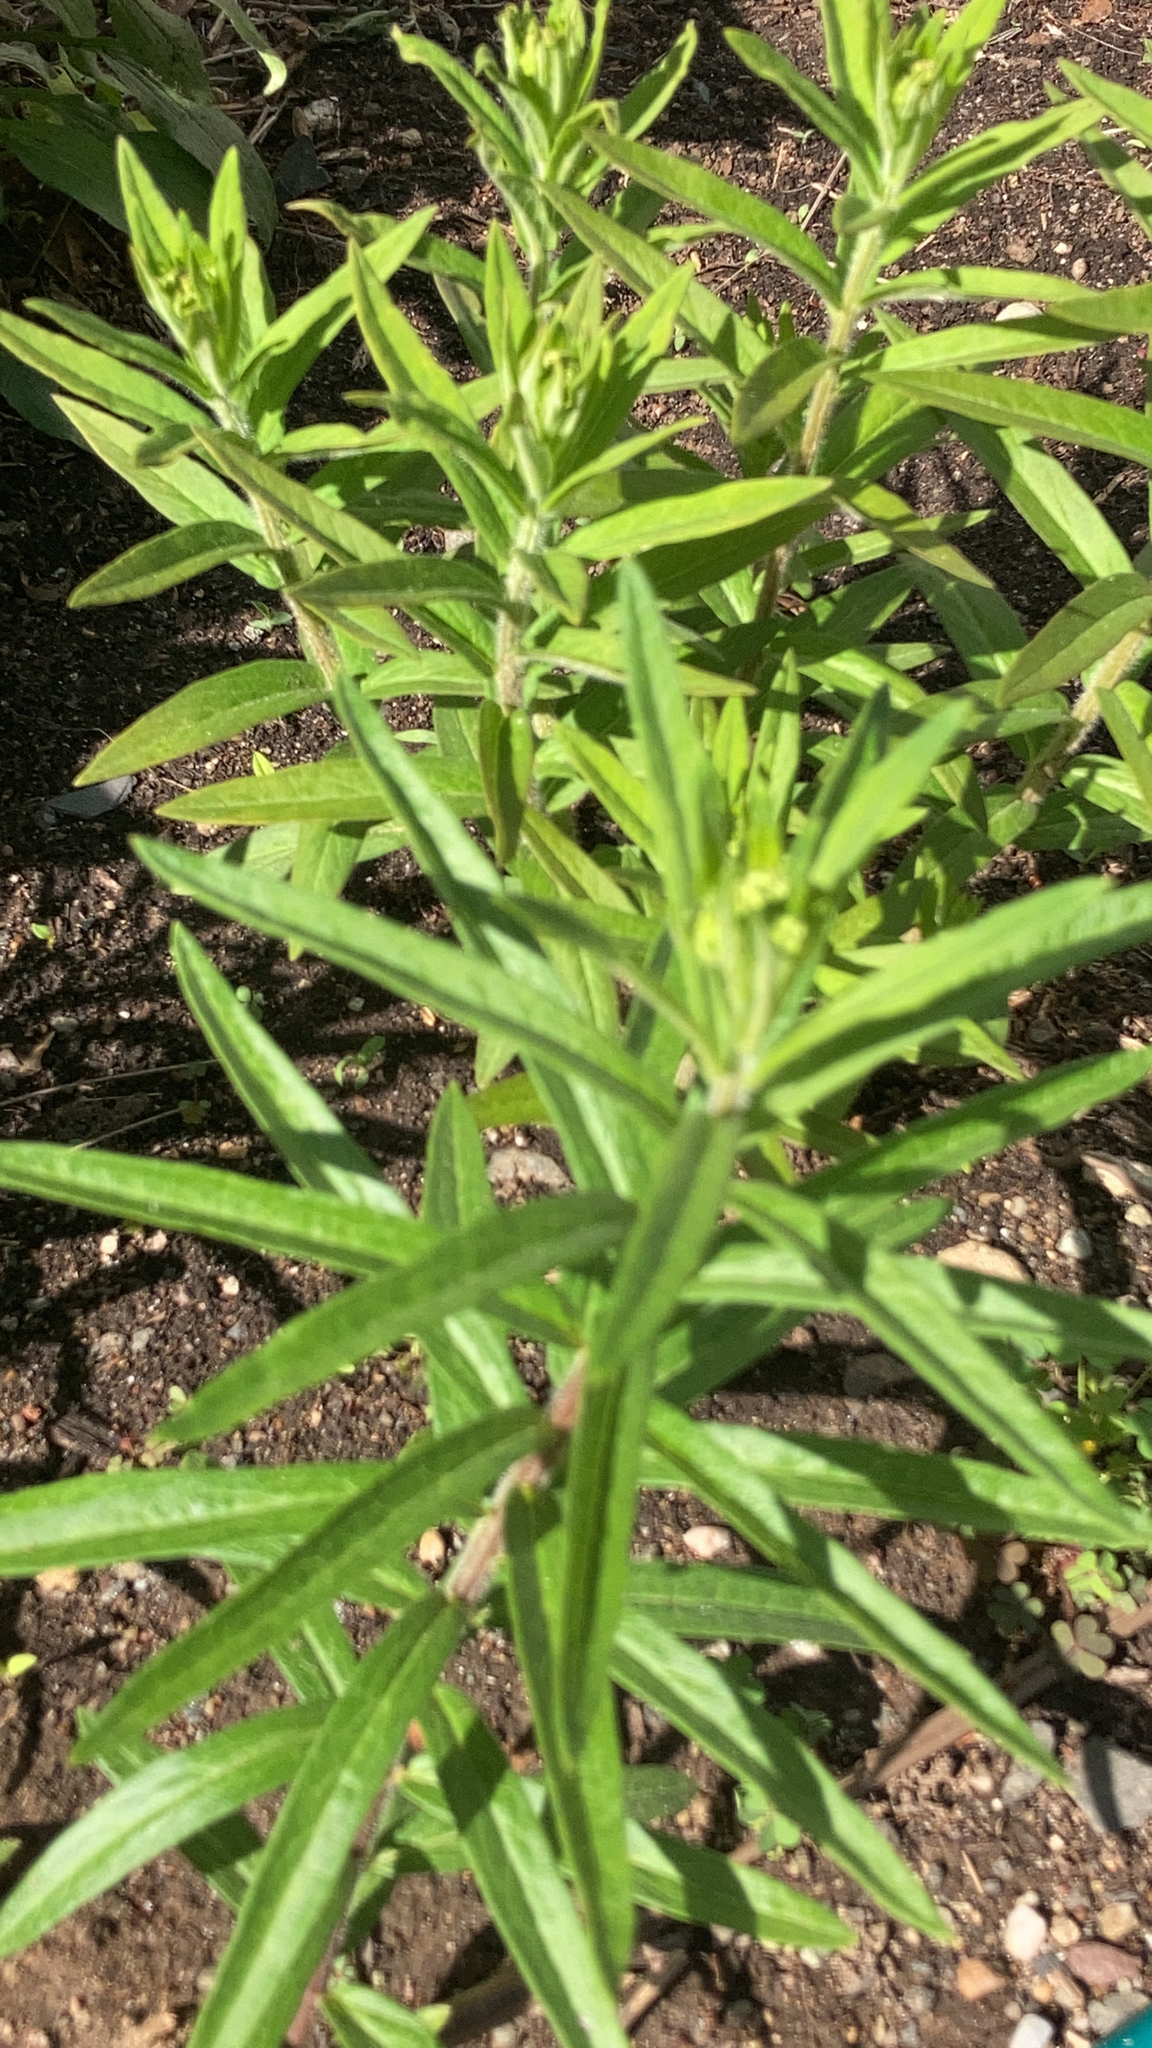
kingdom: Plantae
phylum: Tracheophyta
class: Magnoliopsida
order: Gentianales
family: Apocynaceae
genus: Asclepias
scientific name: Asclepias tuberosa
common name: Butterfly milkweed
